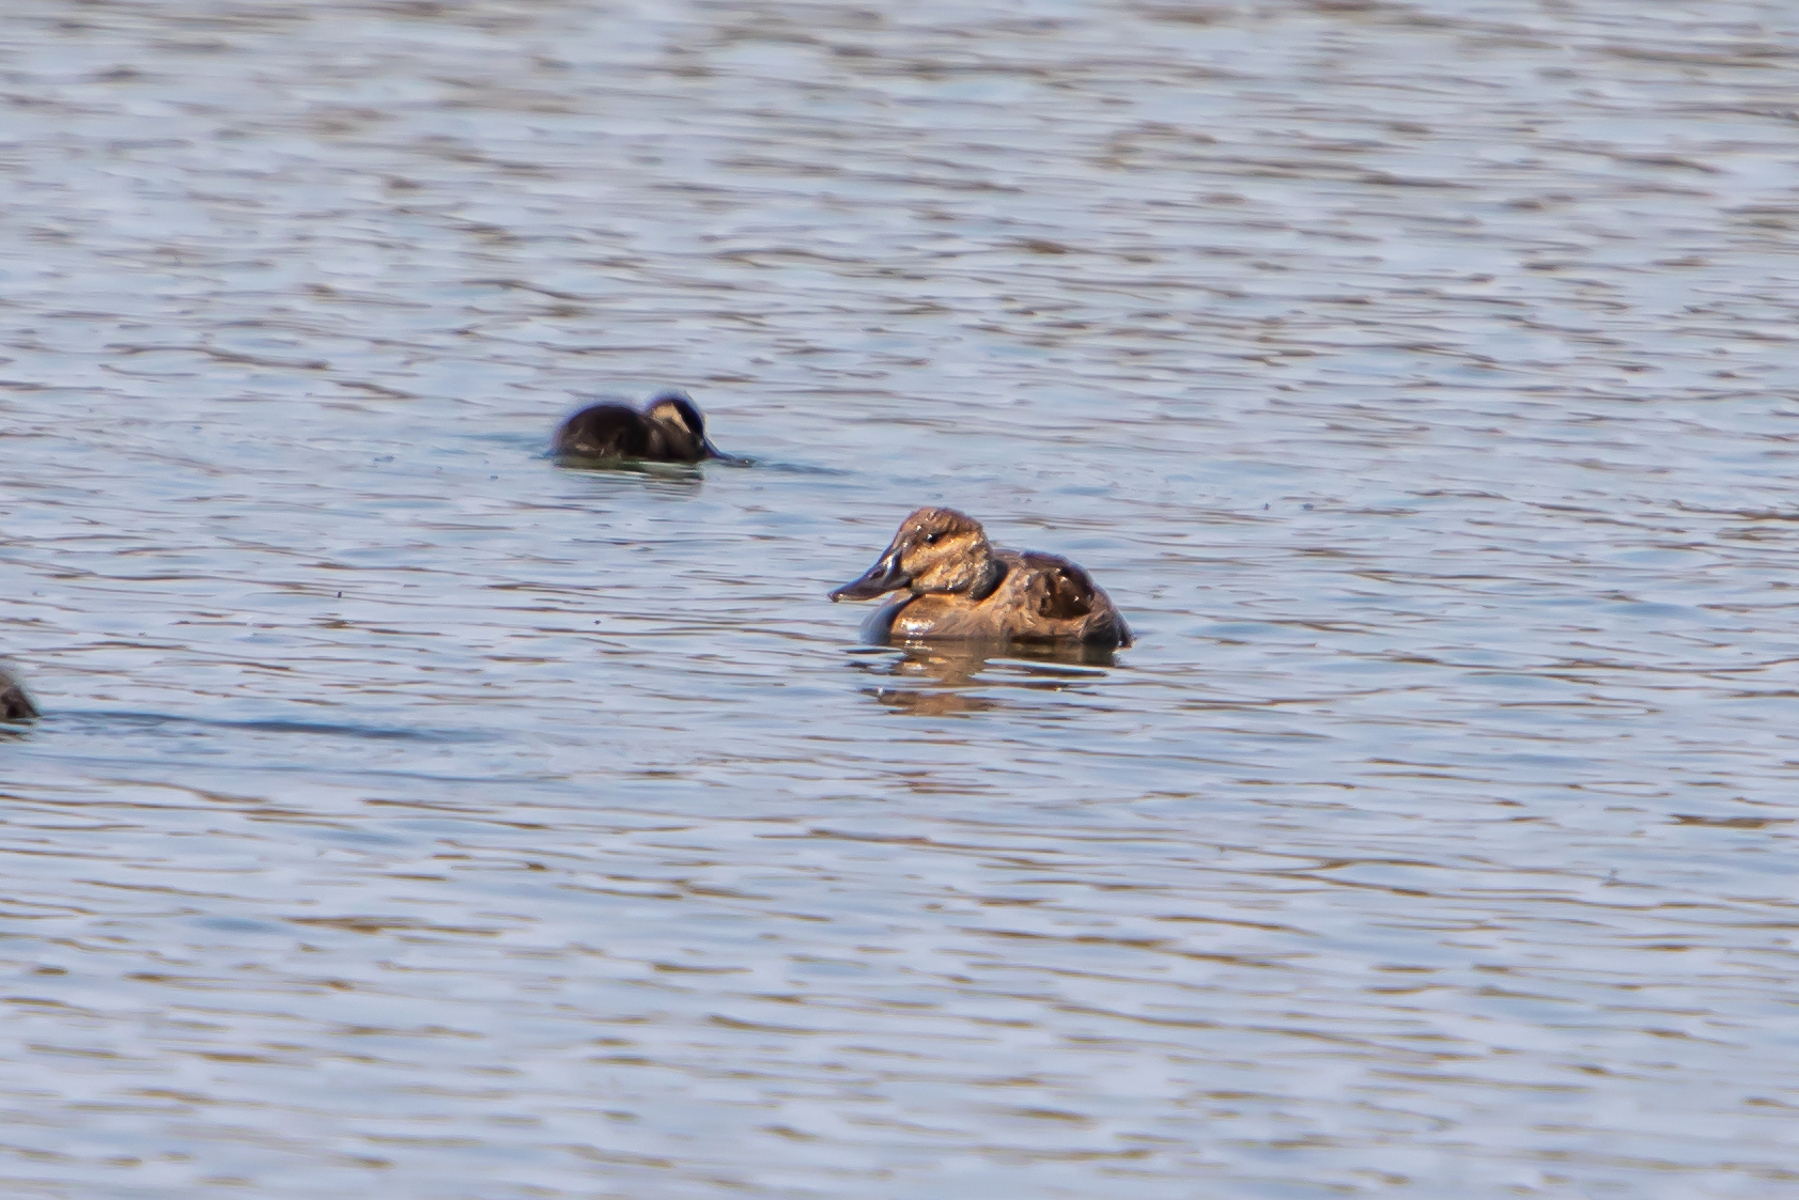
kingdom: Animalia
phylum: Chordata
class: Aves
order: Anseriformes
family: Anatidae
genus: Oxyura
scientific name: Oxyura jamaicensis
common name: Ruddy duck
